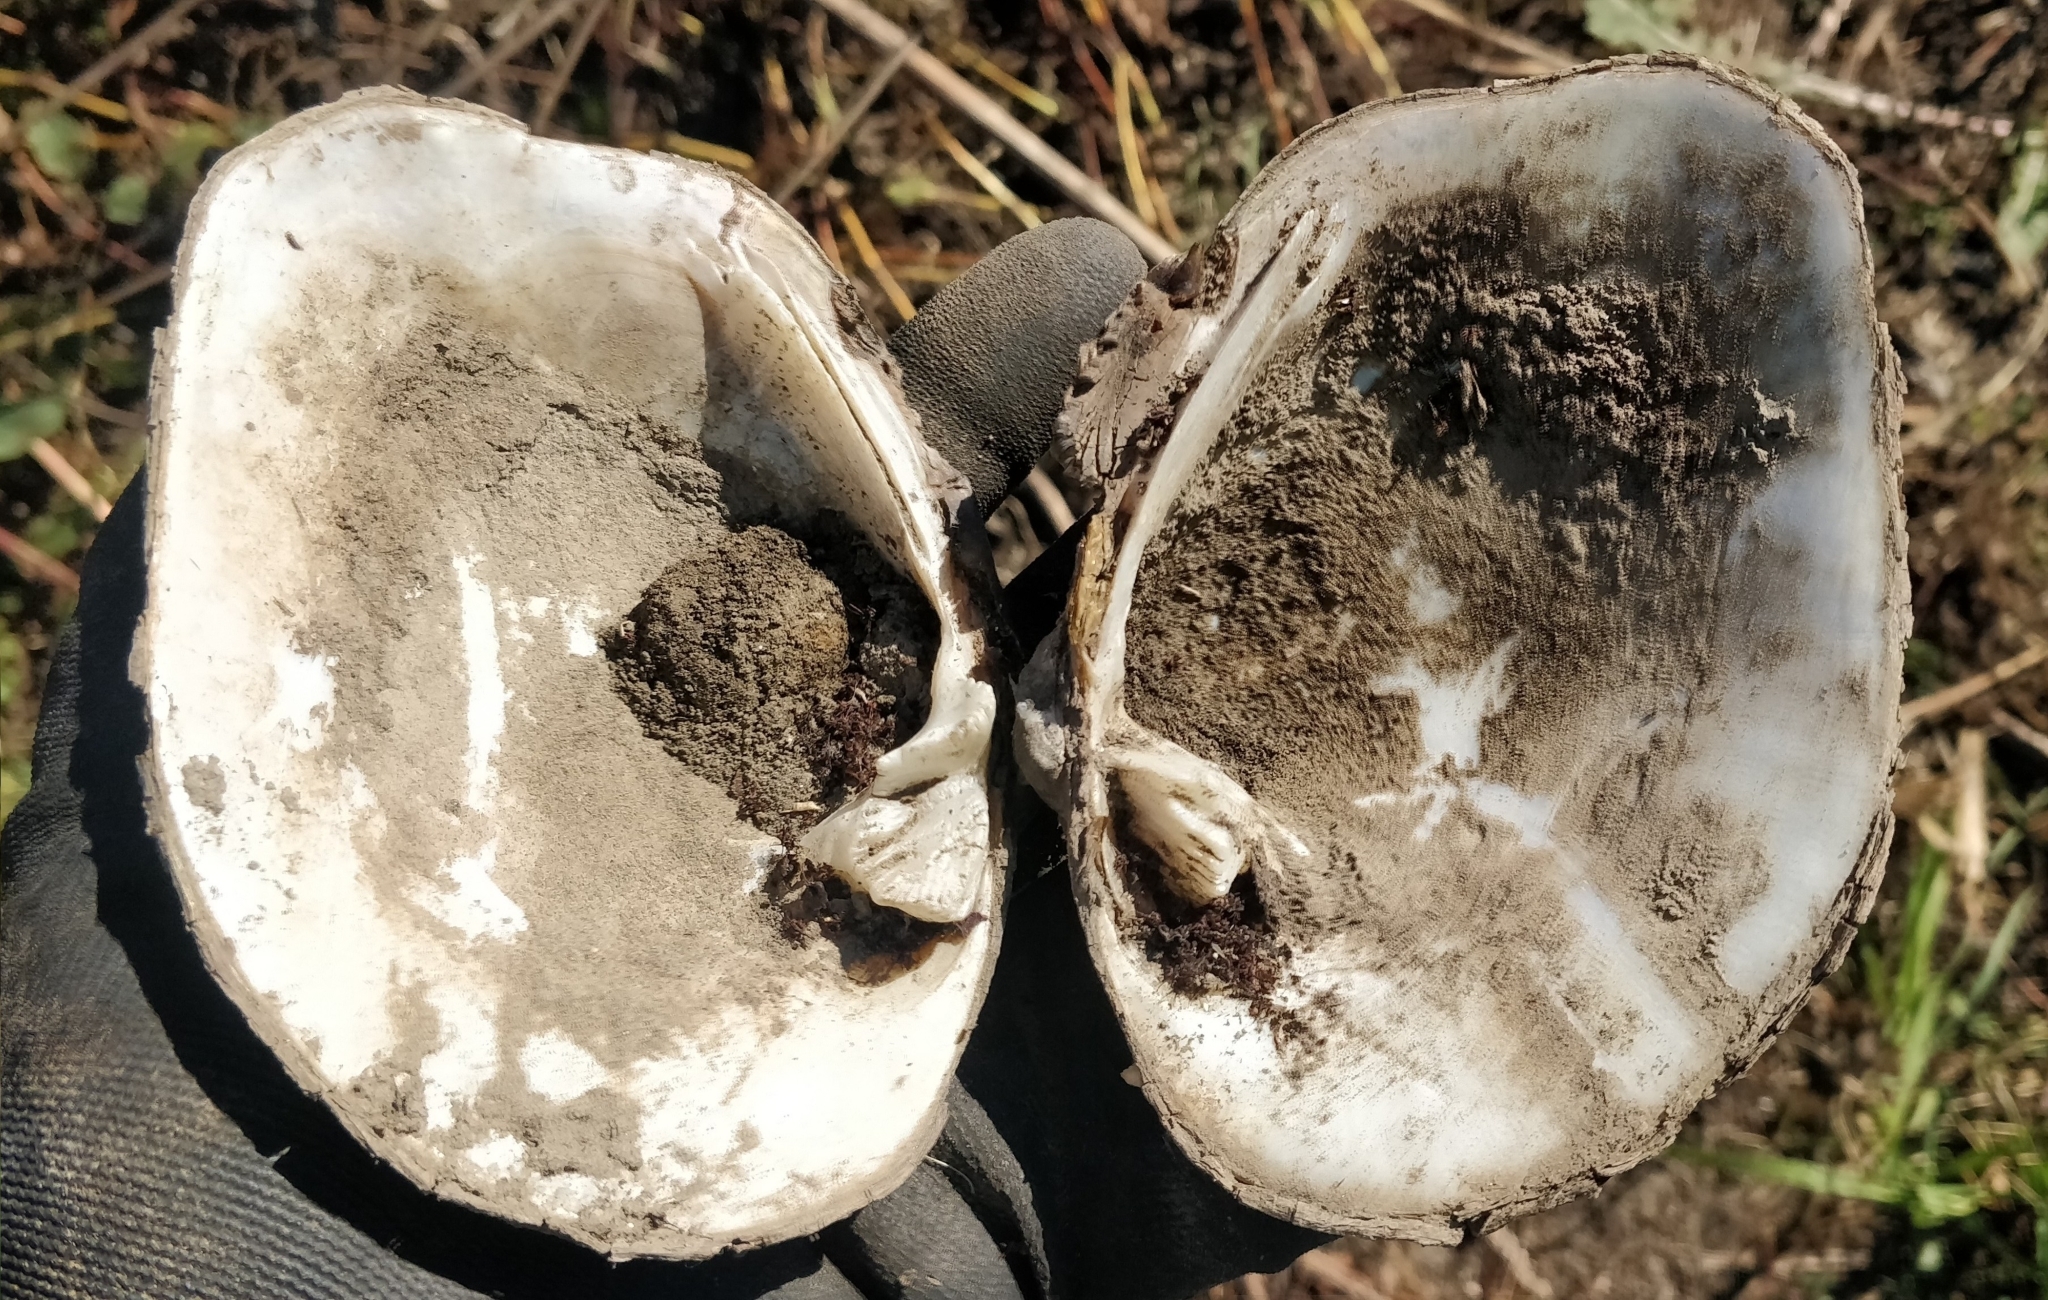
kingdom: Animalia
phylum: Mollusca
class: Bivalvia
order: Unionida
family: Unionidae
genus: Quadrula
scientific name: Quadrula quadrula
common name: Mapleleaf
